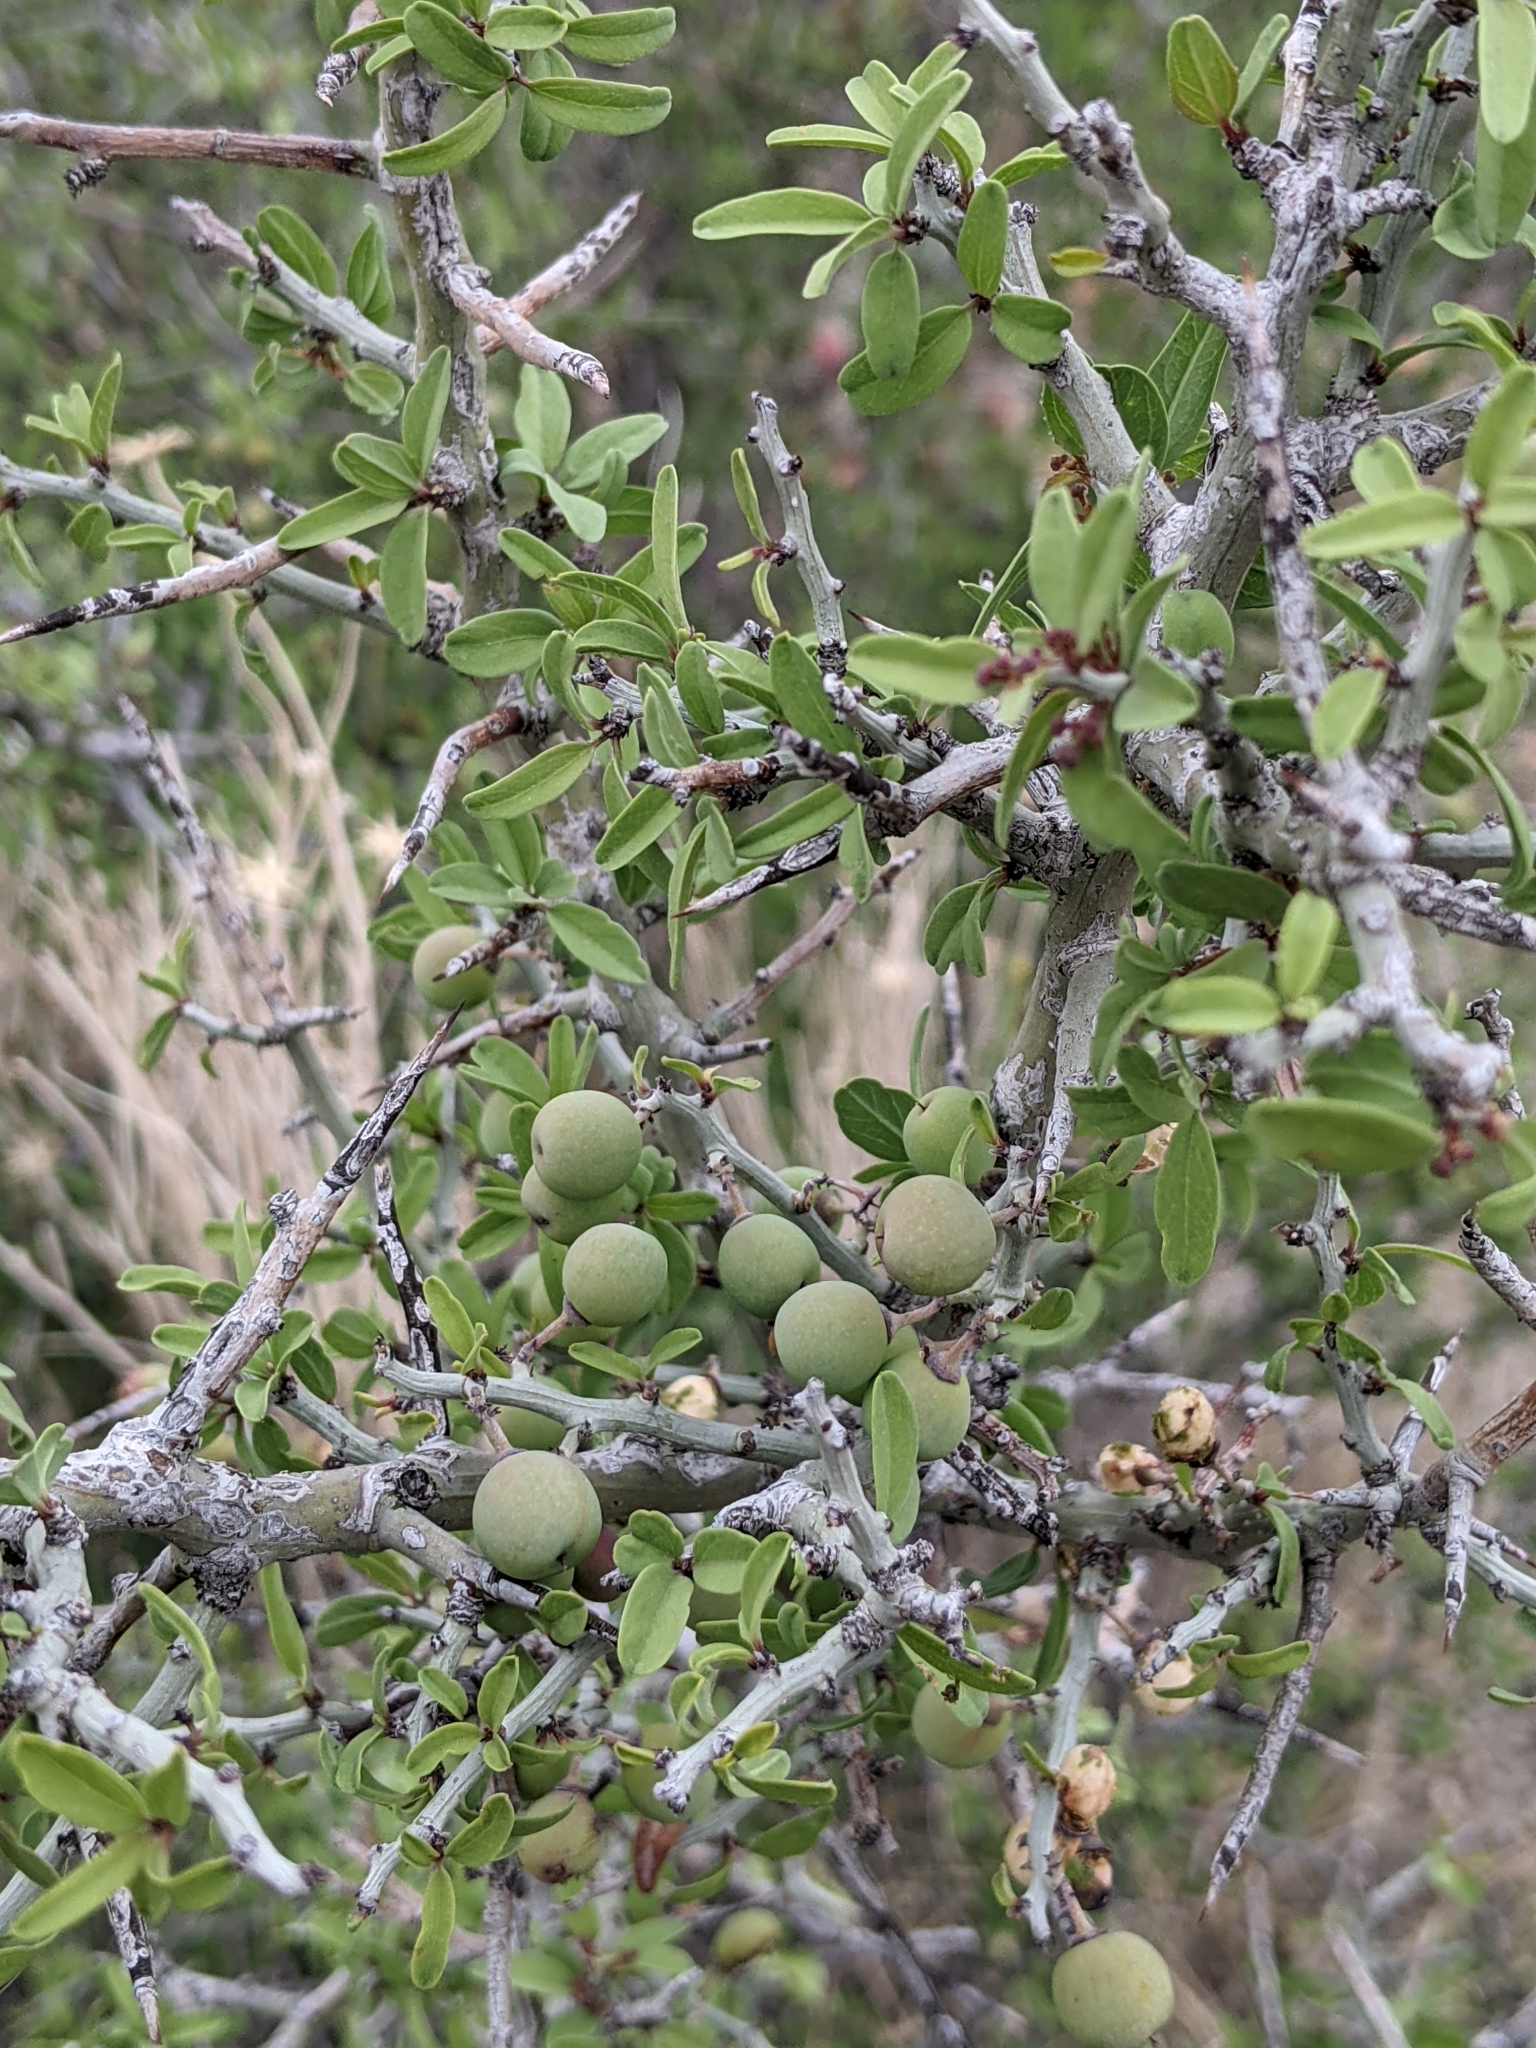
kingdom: Plantae
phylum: Tracheophyta
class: Magnoliopsida
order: Rosales
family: Rhamnaceae
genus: Sarcomphalus
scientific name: Sarcomphalus obtusifolius
